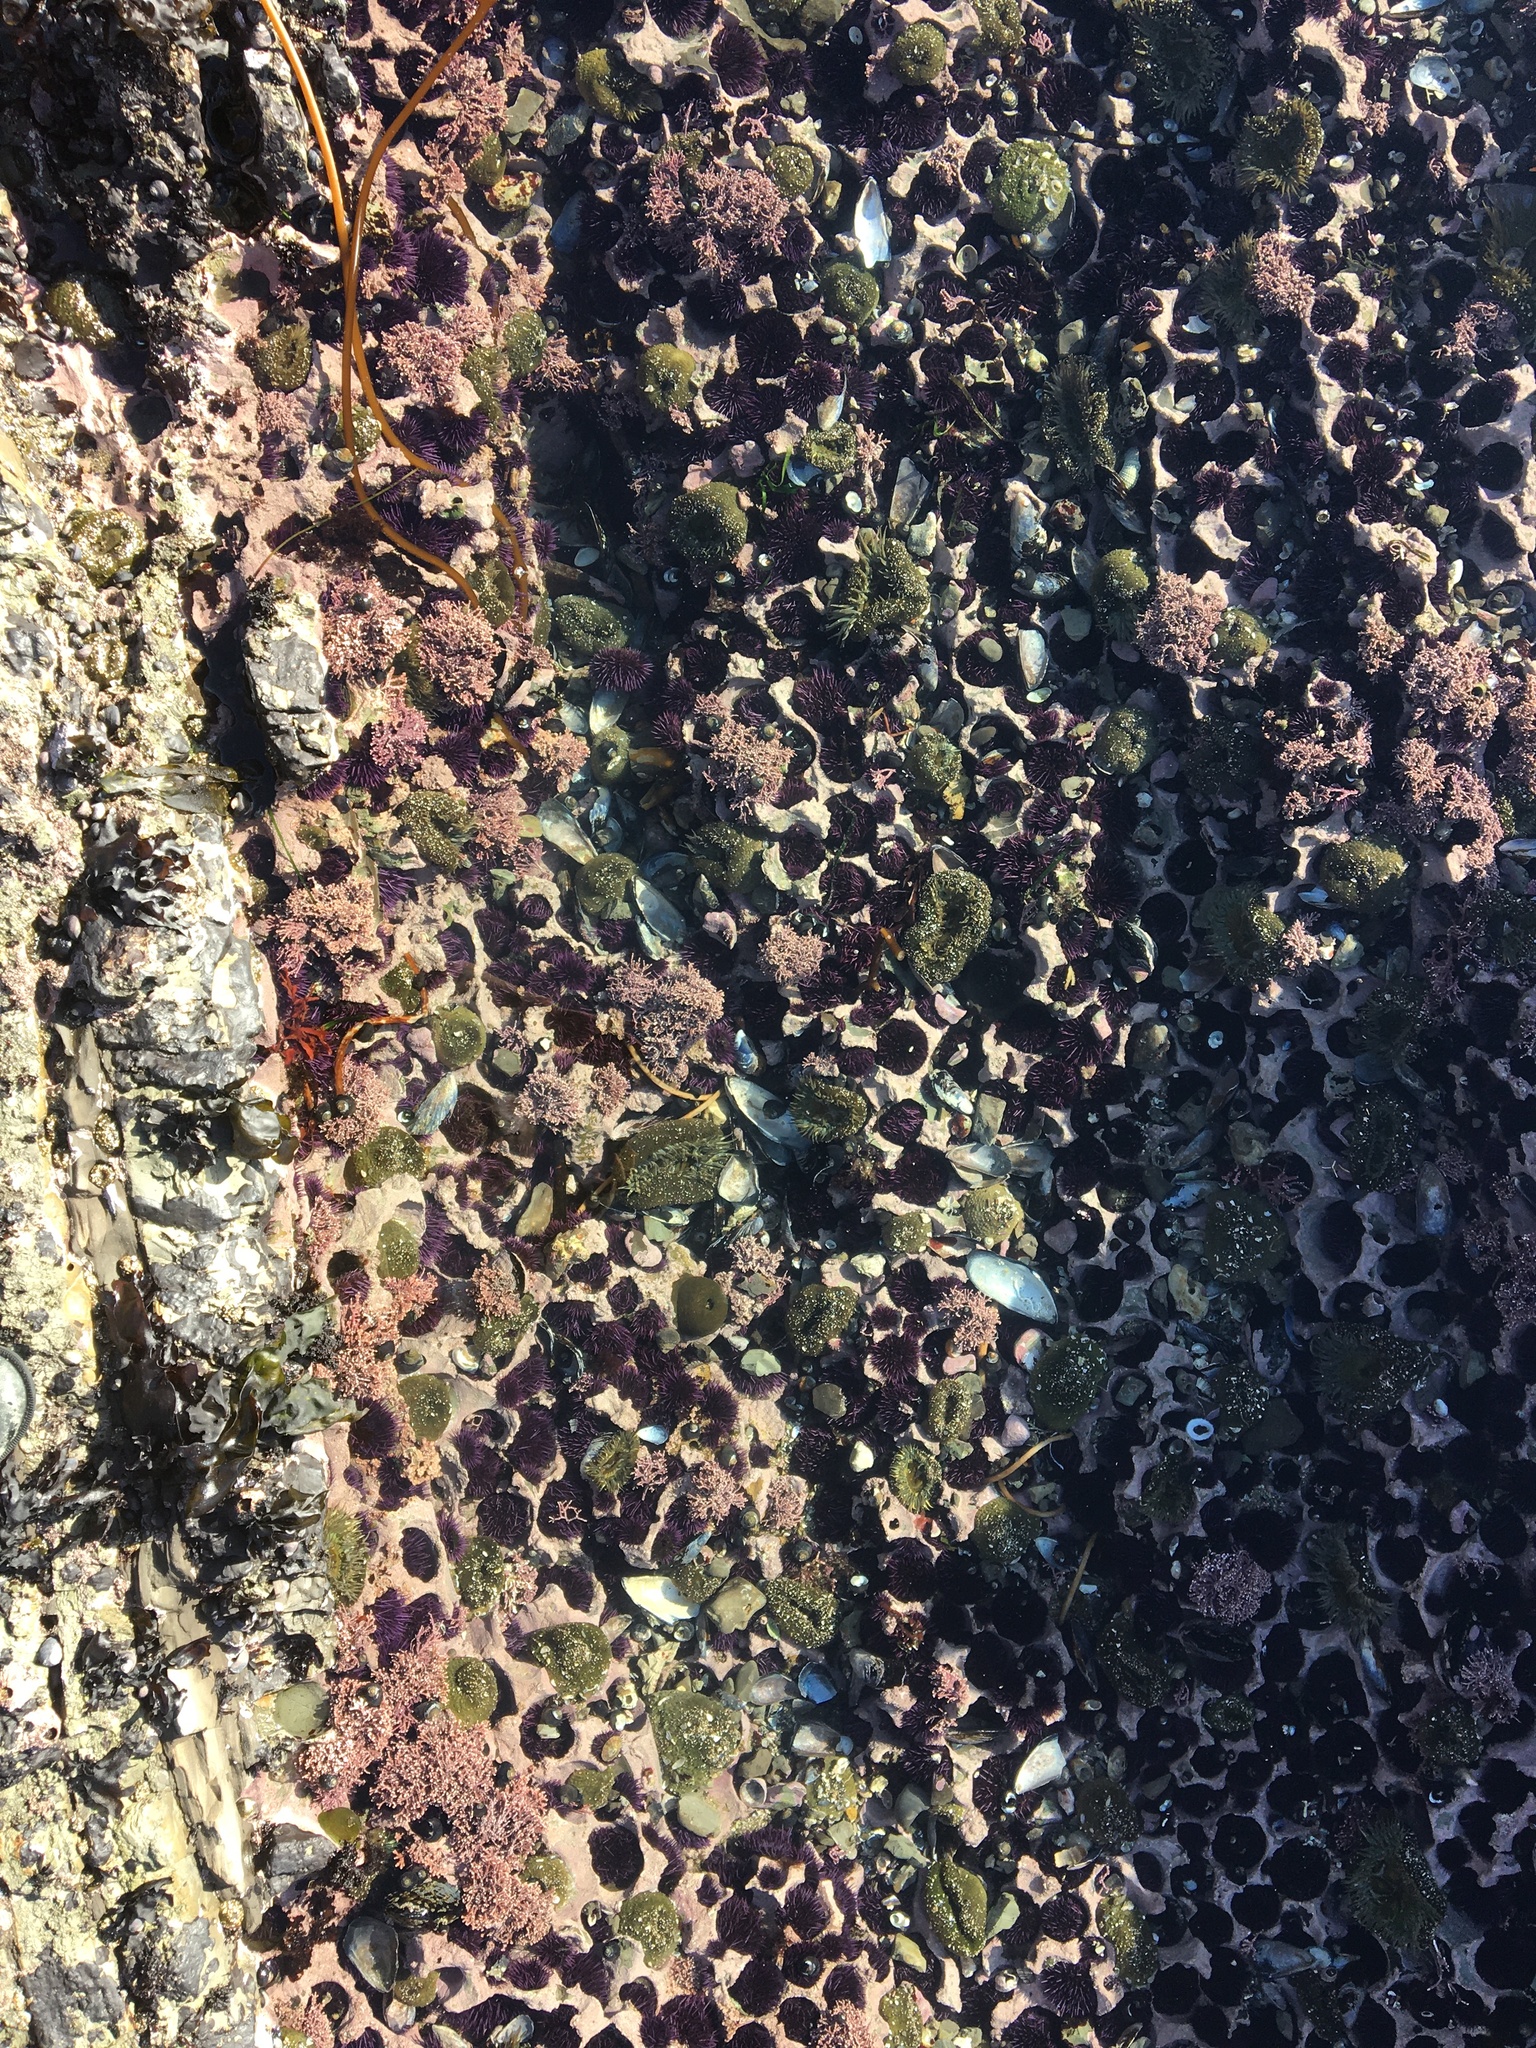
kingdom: Animalia
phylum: Echinodermata
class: Echinoidea
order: Camarodonta
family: Strongylocentrotidae
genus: Strongylocentrotus
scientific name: Strongylocentrotus purpuratus
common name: Purple sea urchin
